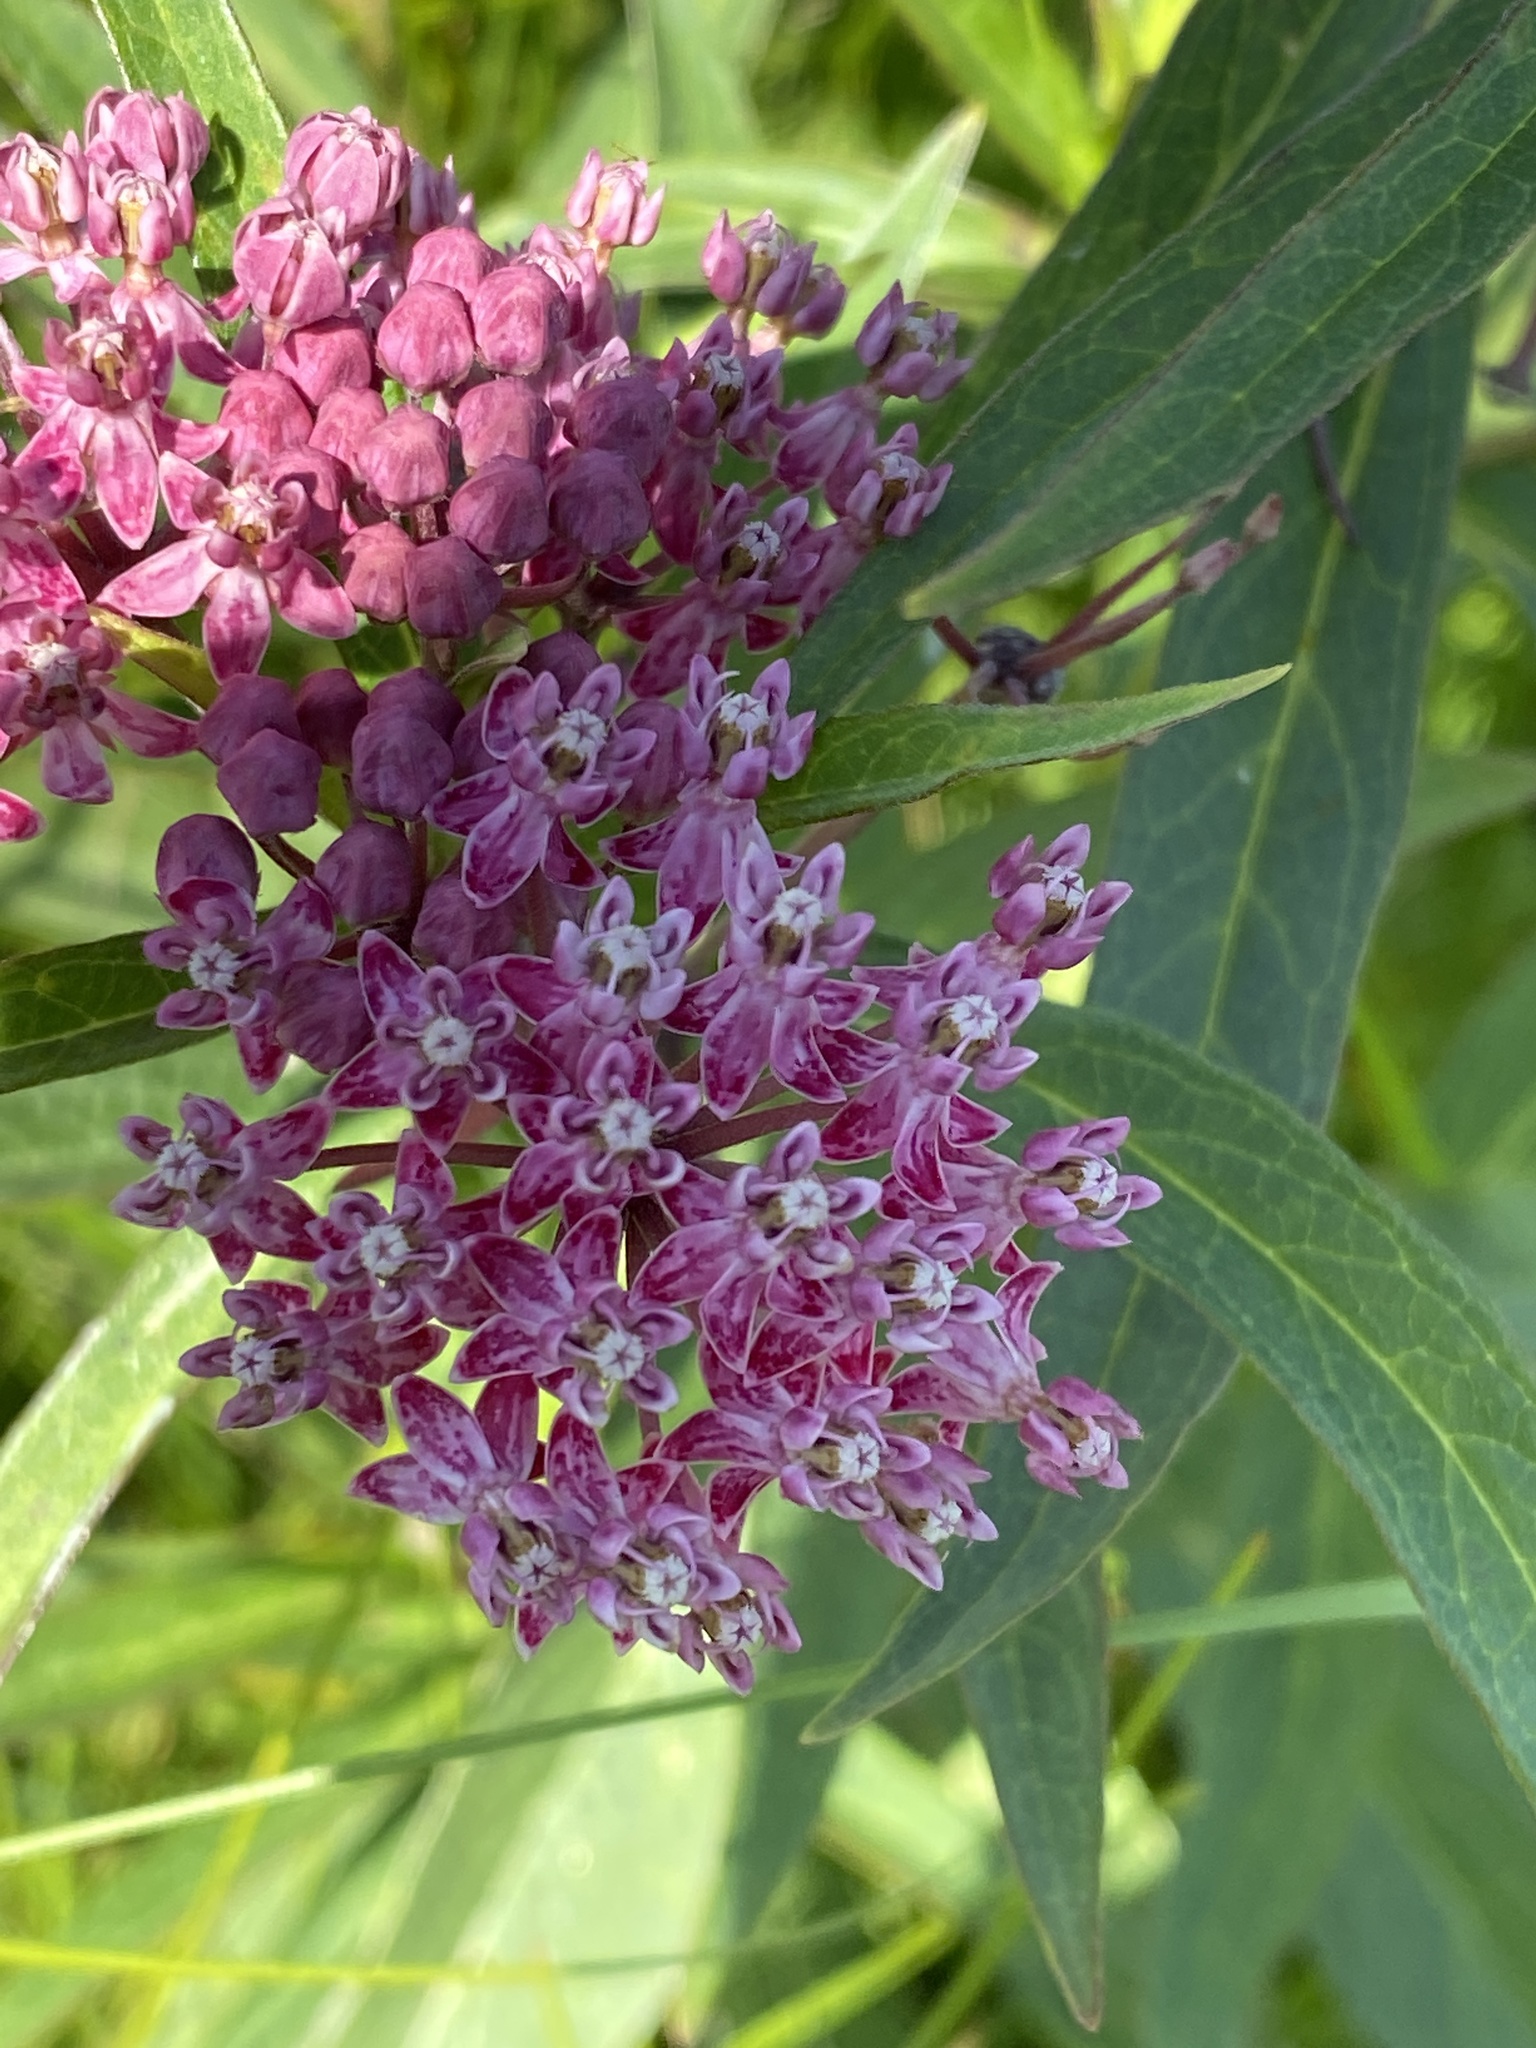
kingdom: Plantae
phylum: Tracheophyta
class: Magnoliopsida
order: Gentianales
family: Apocynaceae
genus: Asclepias
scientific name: Asclepias incarnata
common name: Swamp milkweed
